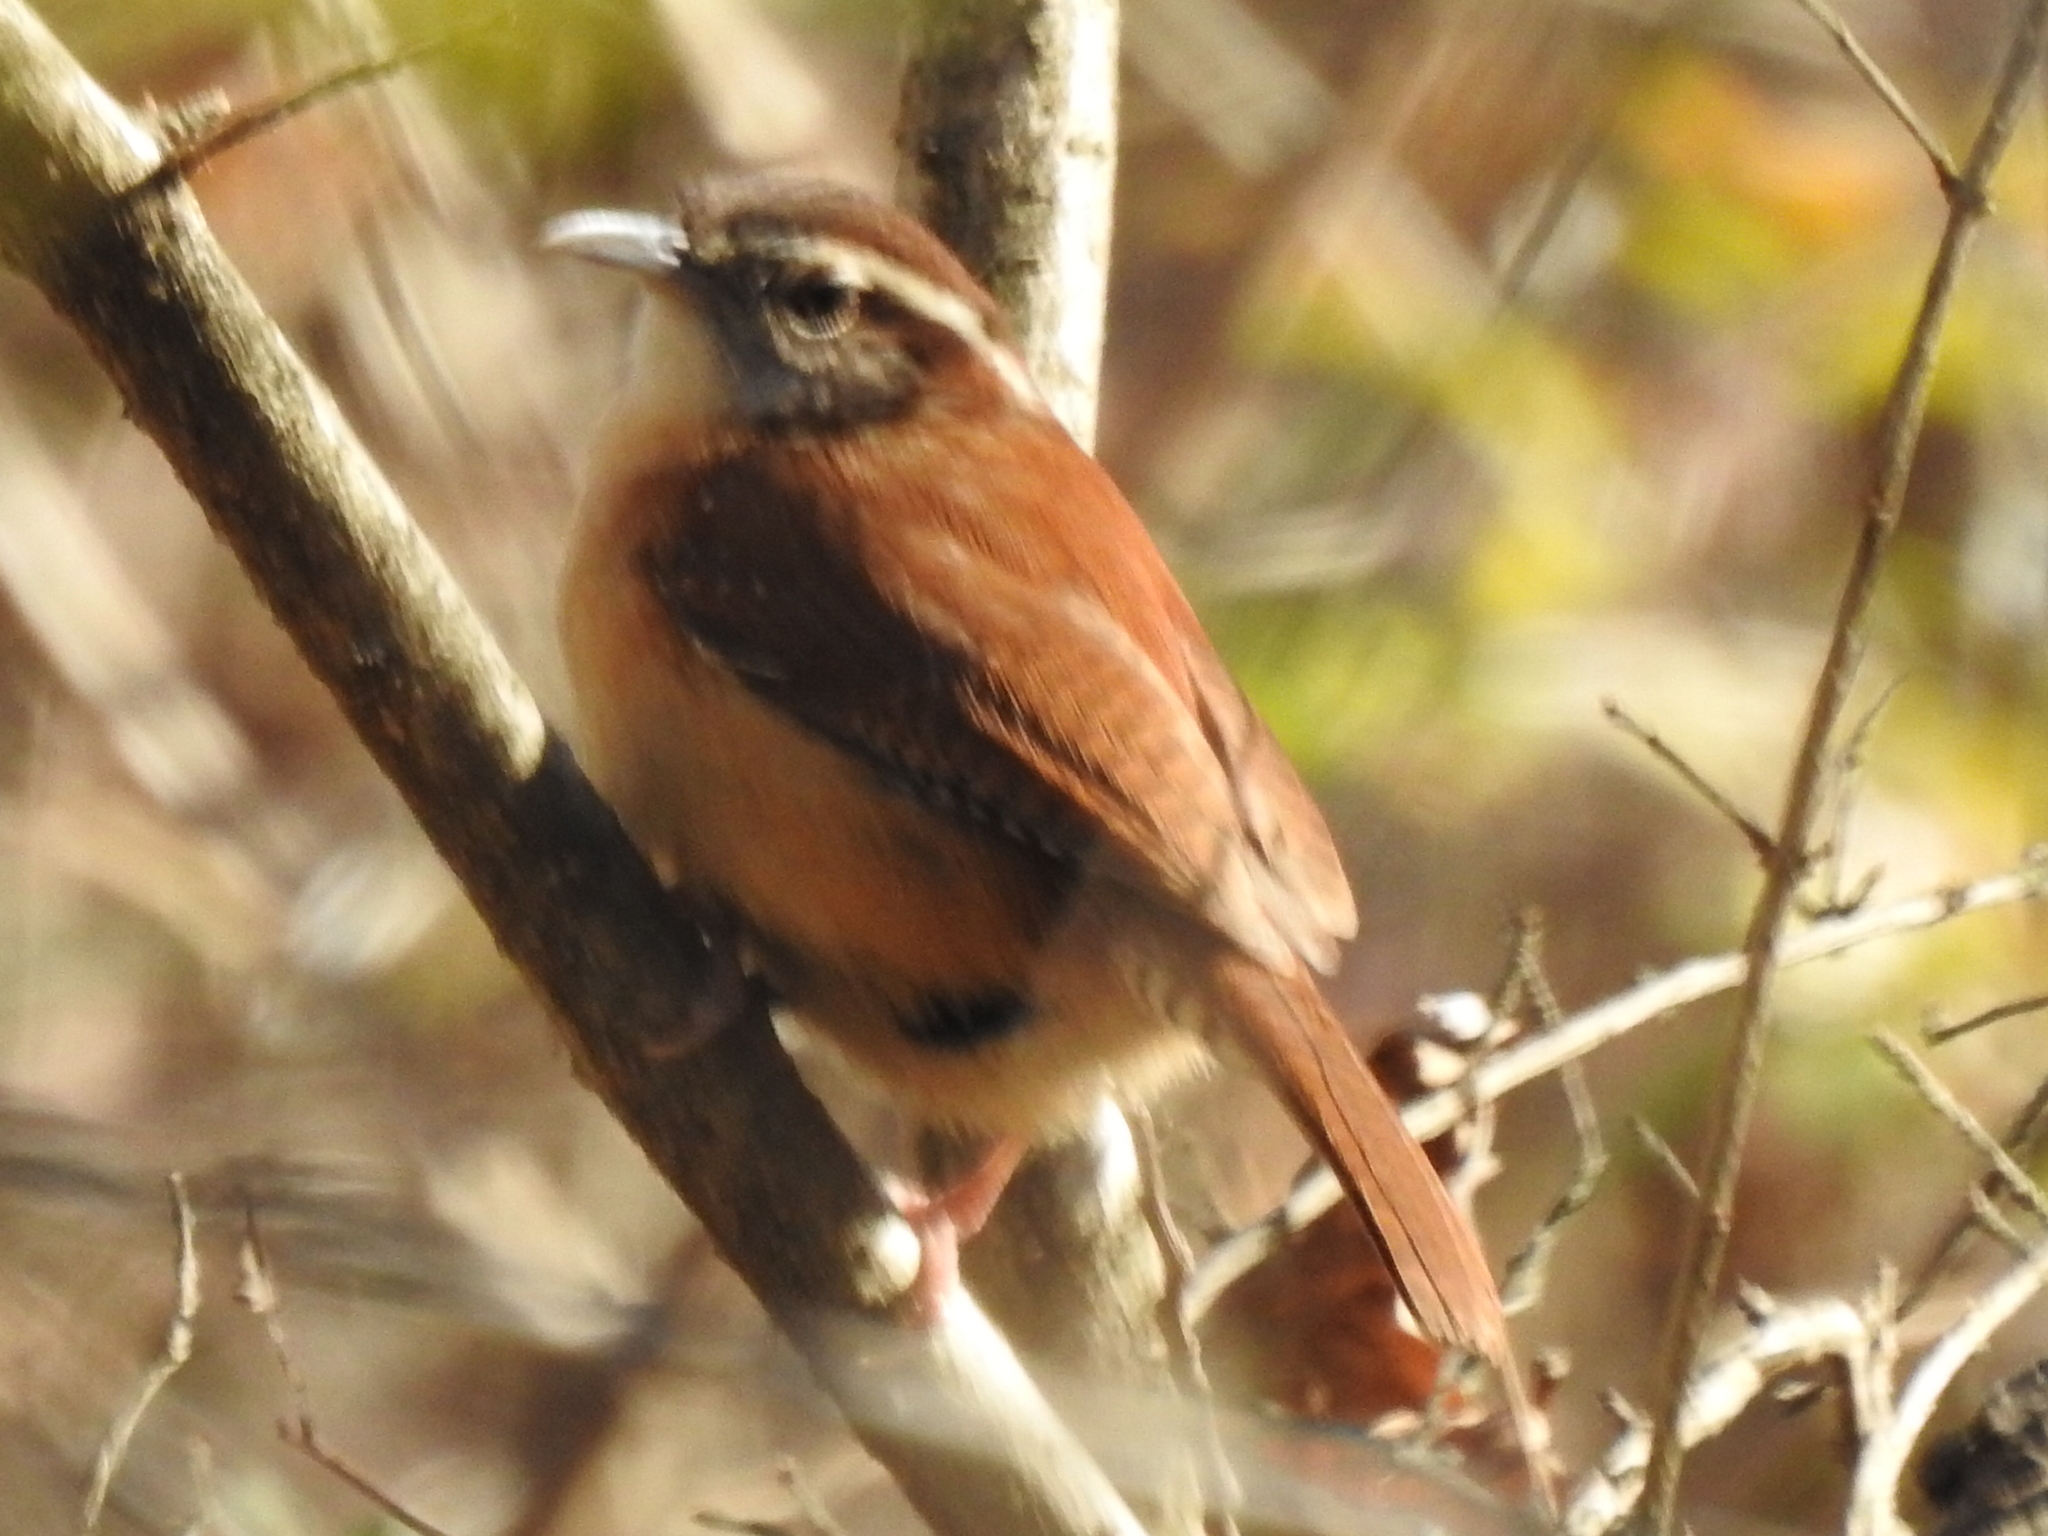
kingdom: Animalia
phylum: Chordata
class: Aves
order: Passeriformes
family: Troglodytidae
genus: Thryothorus
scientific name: Thryothorus ludovicianus
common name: Carolina wren
